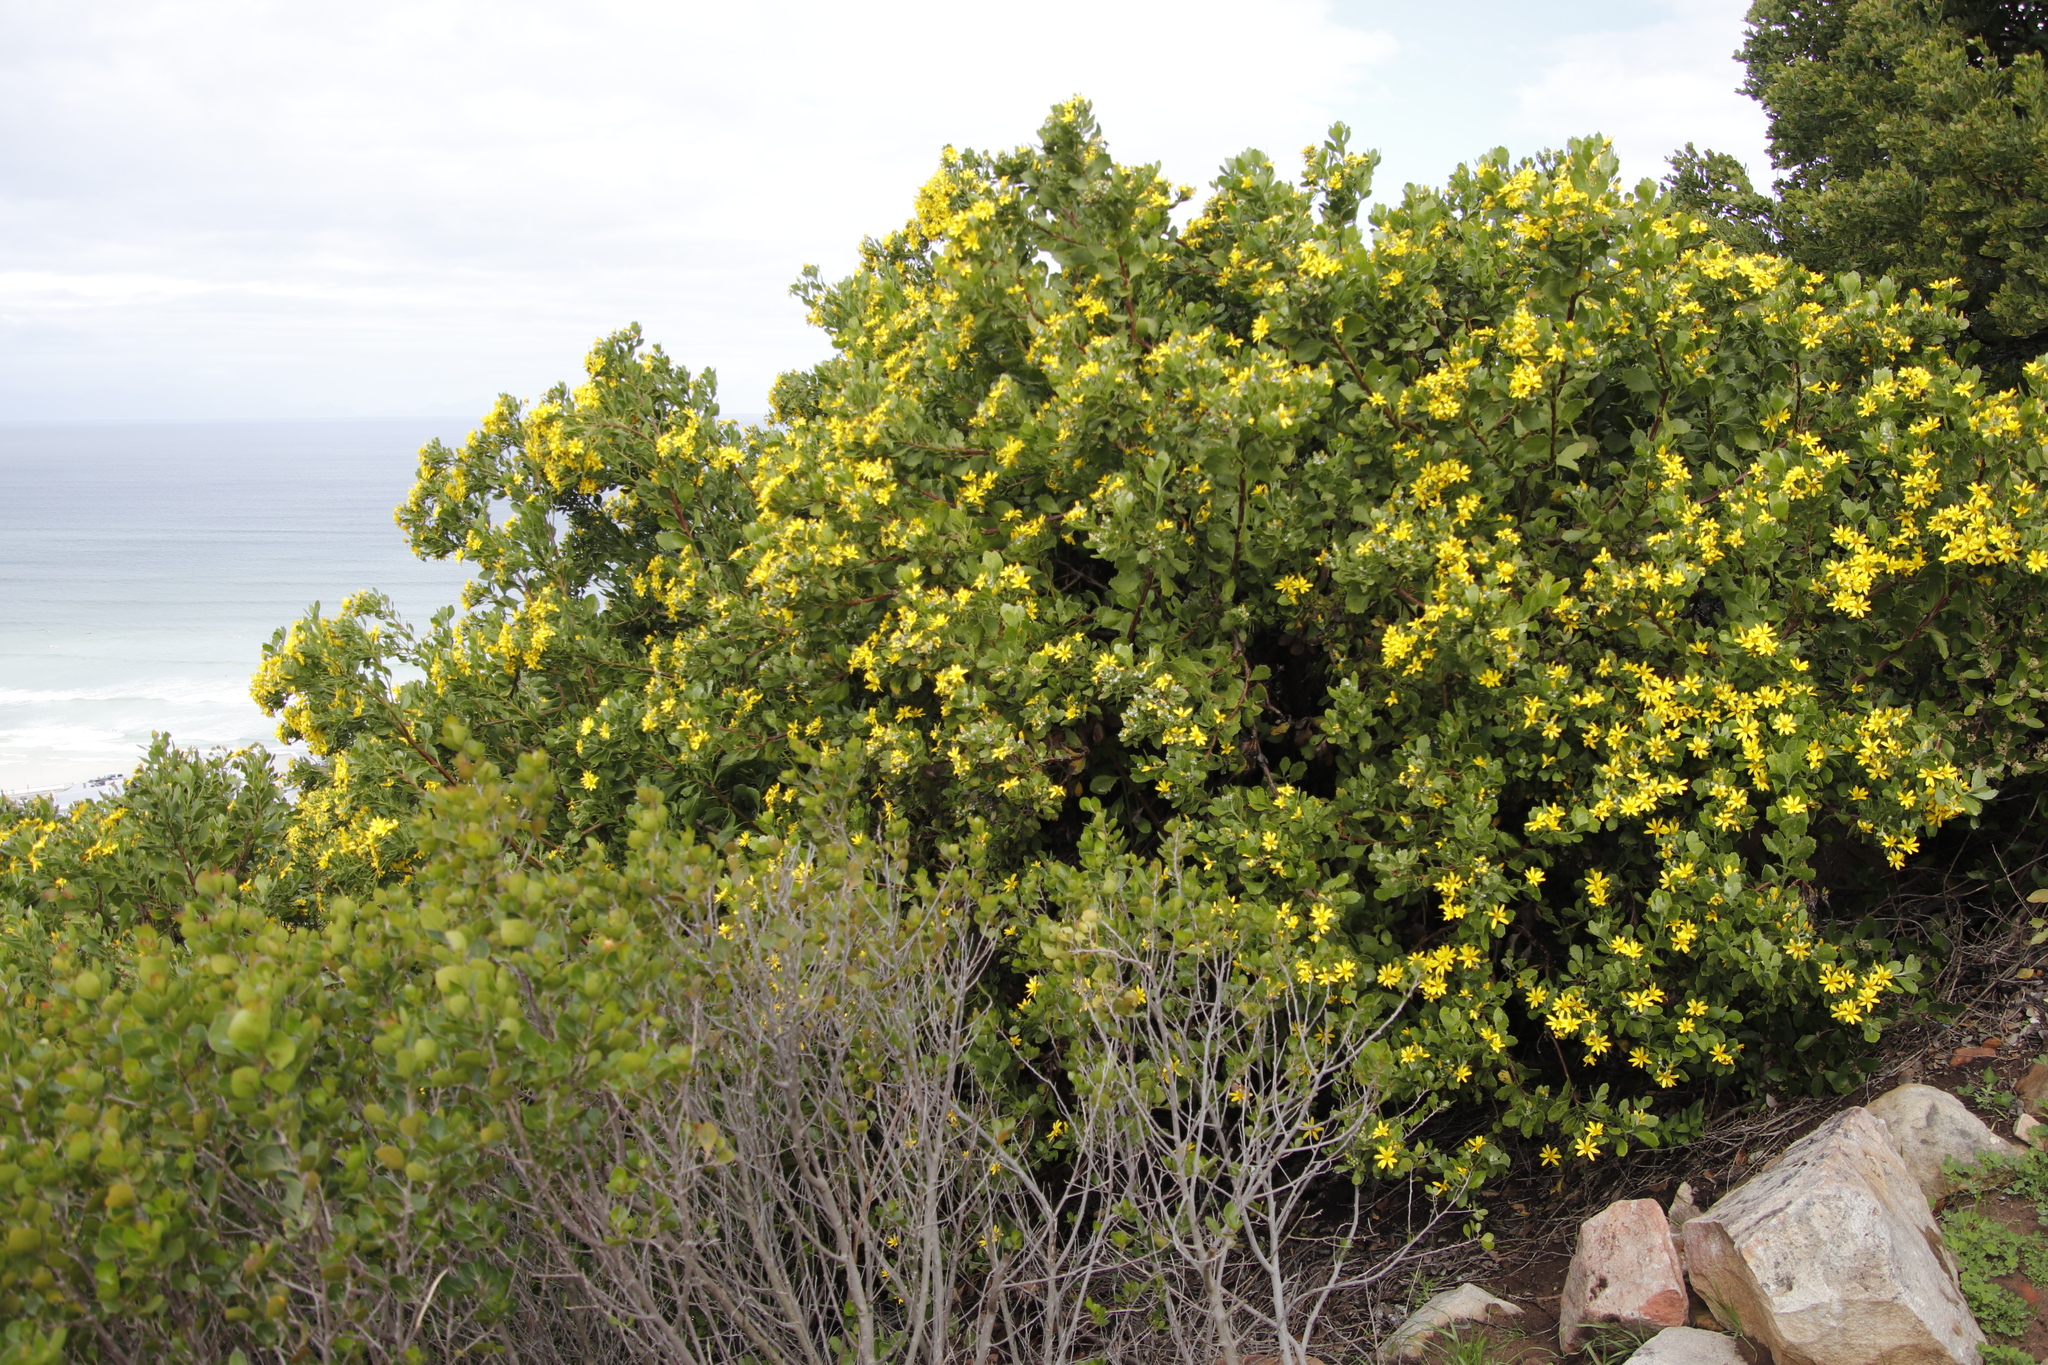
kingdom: Plantae
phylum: Tracheophyta
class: Magnoliopsida
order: Asterales
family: Asteraceae
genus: Osteospermum
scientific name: Osteospermum moniliferum
